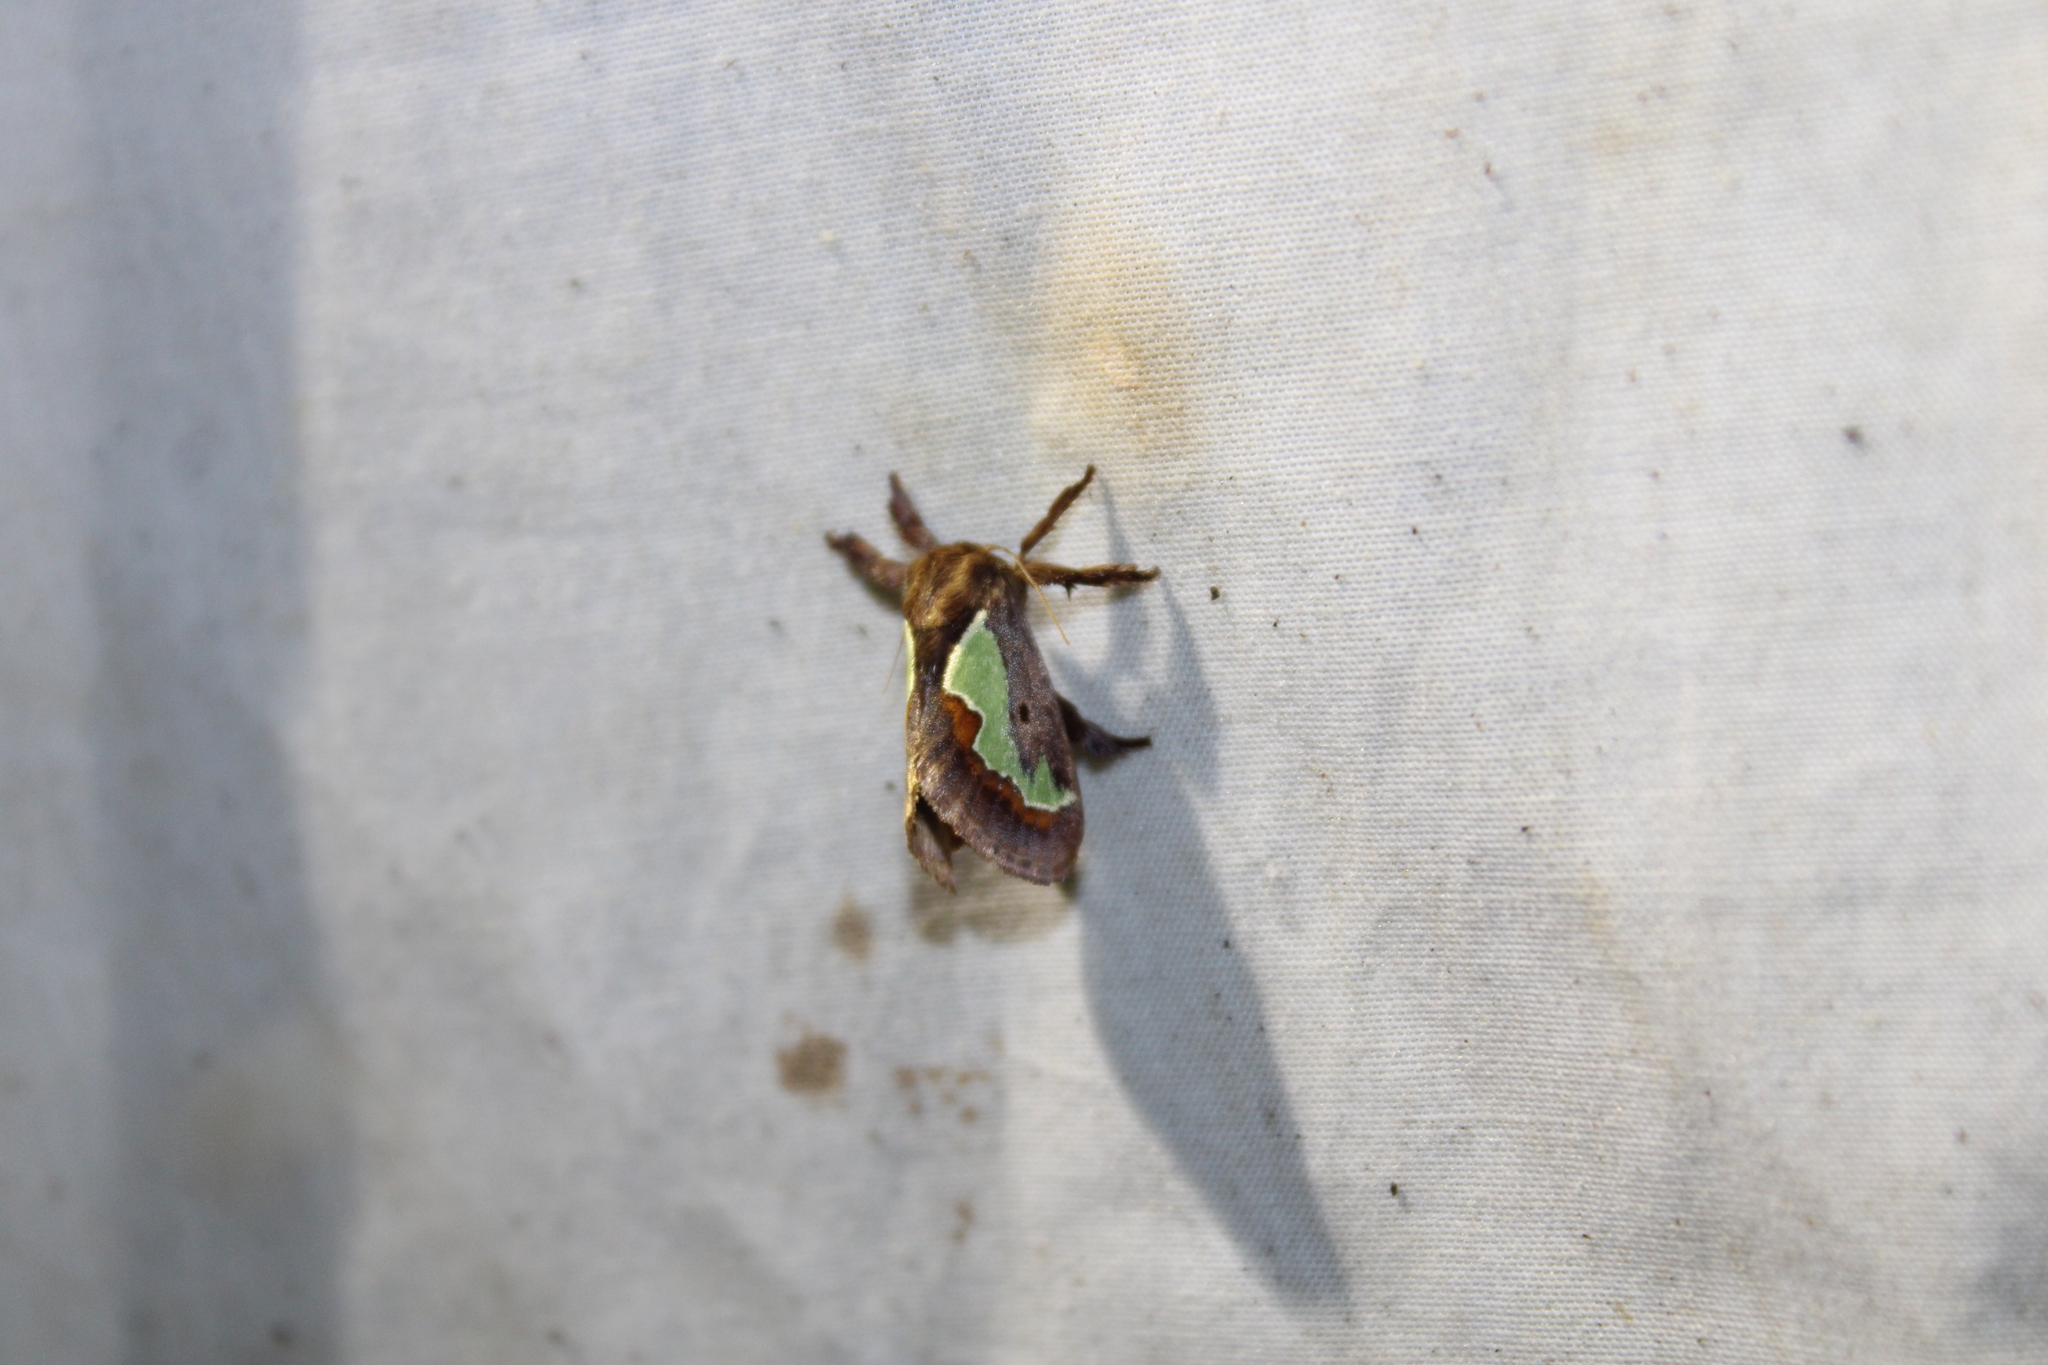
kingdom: Animalia
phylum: Arthropoda
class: Insecta
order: Lepidoptera
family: Limacodidae
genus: Euclea
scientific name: Euclea delphinii
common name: Spiny oak-slug moth
